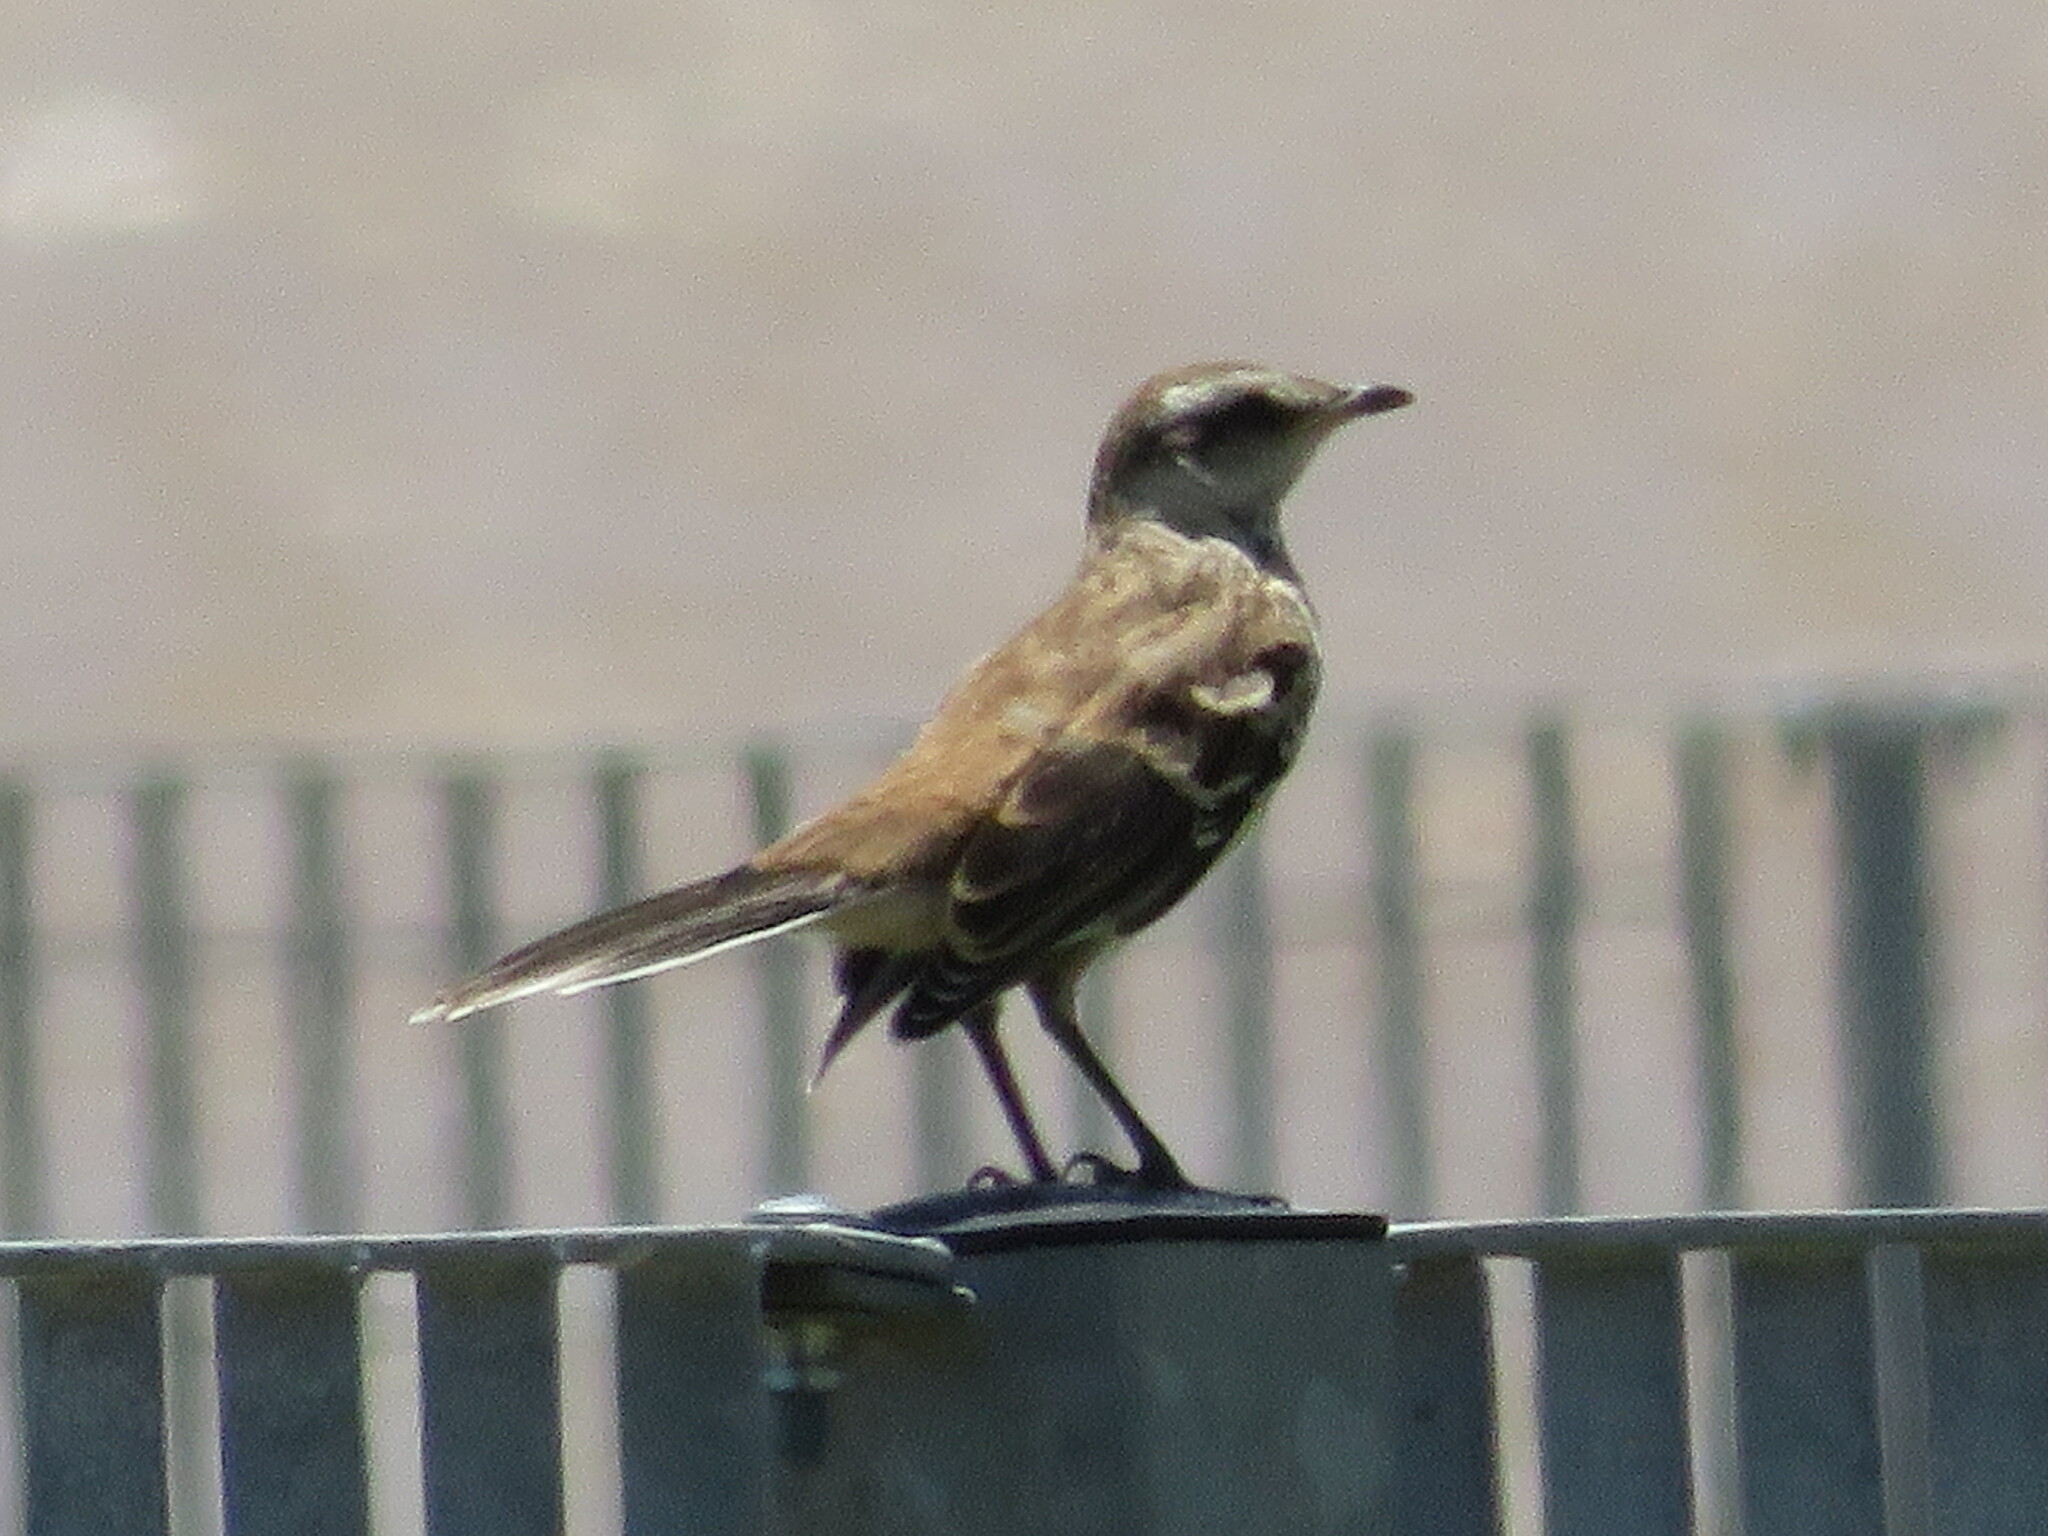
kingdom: Animalia
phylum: Chordata
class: Aves
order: Passeriformes
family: Mimidae
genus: Mimus
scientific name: Mimus saturninus
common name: Chalk-browed mockingbird
